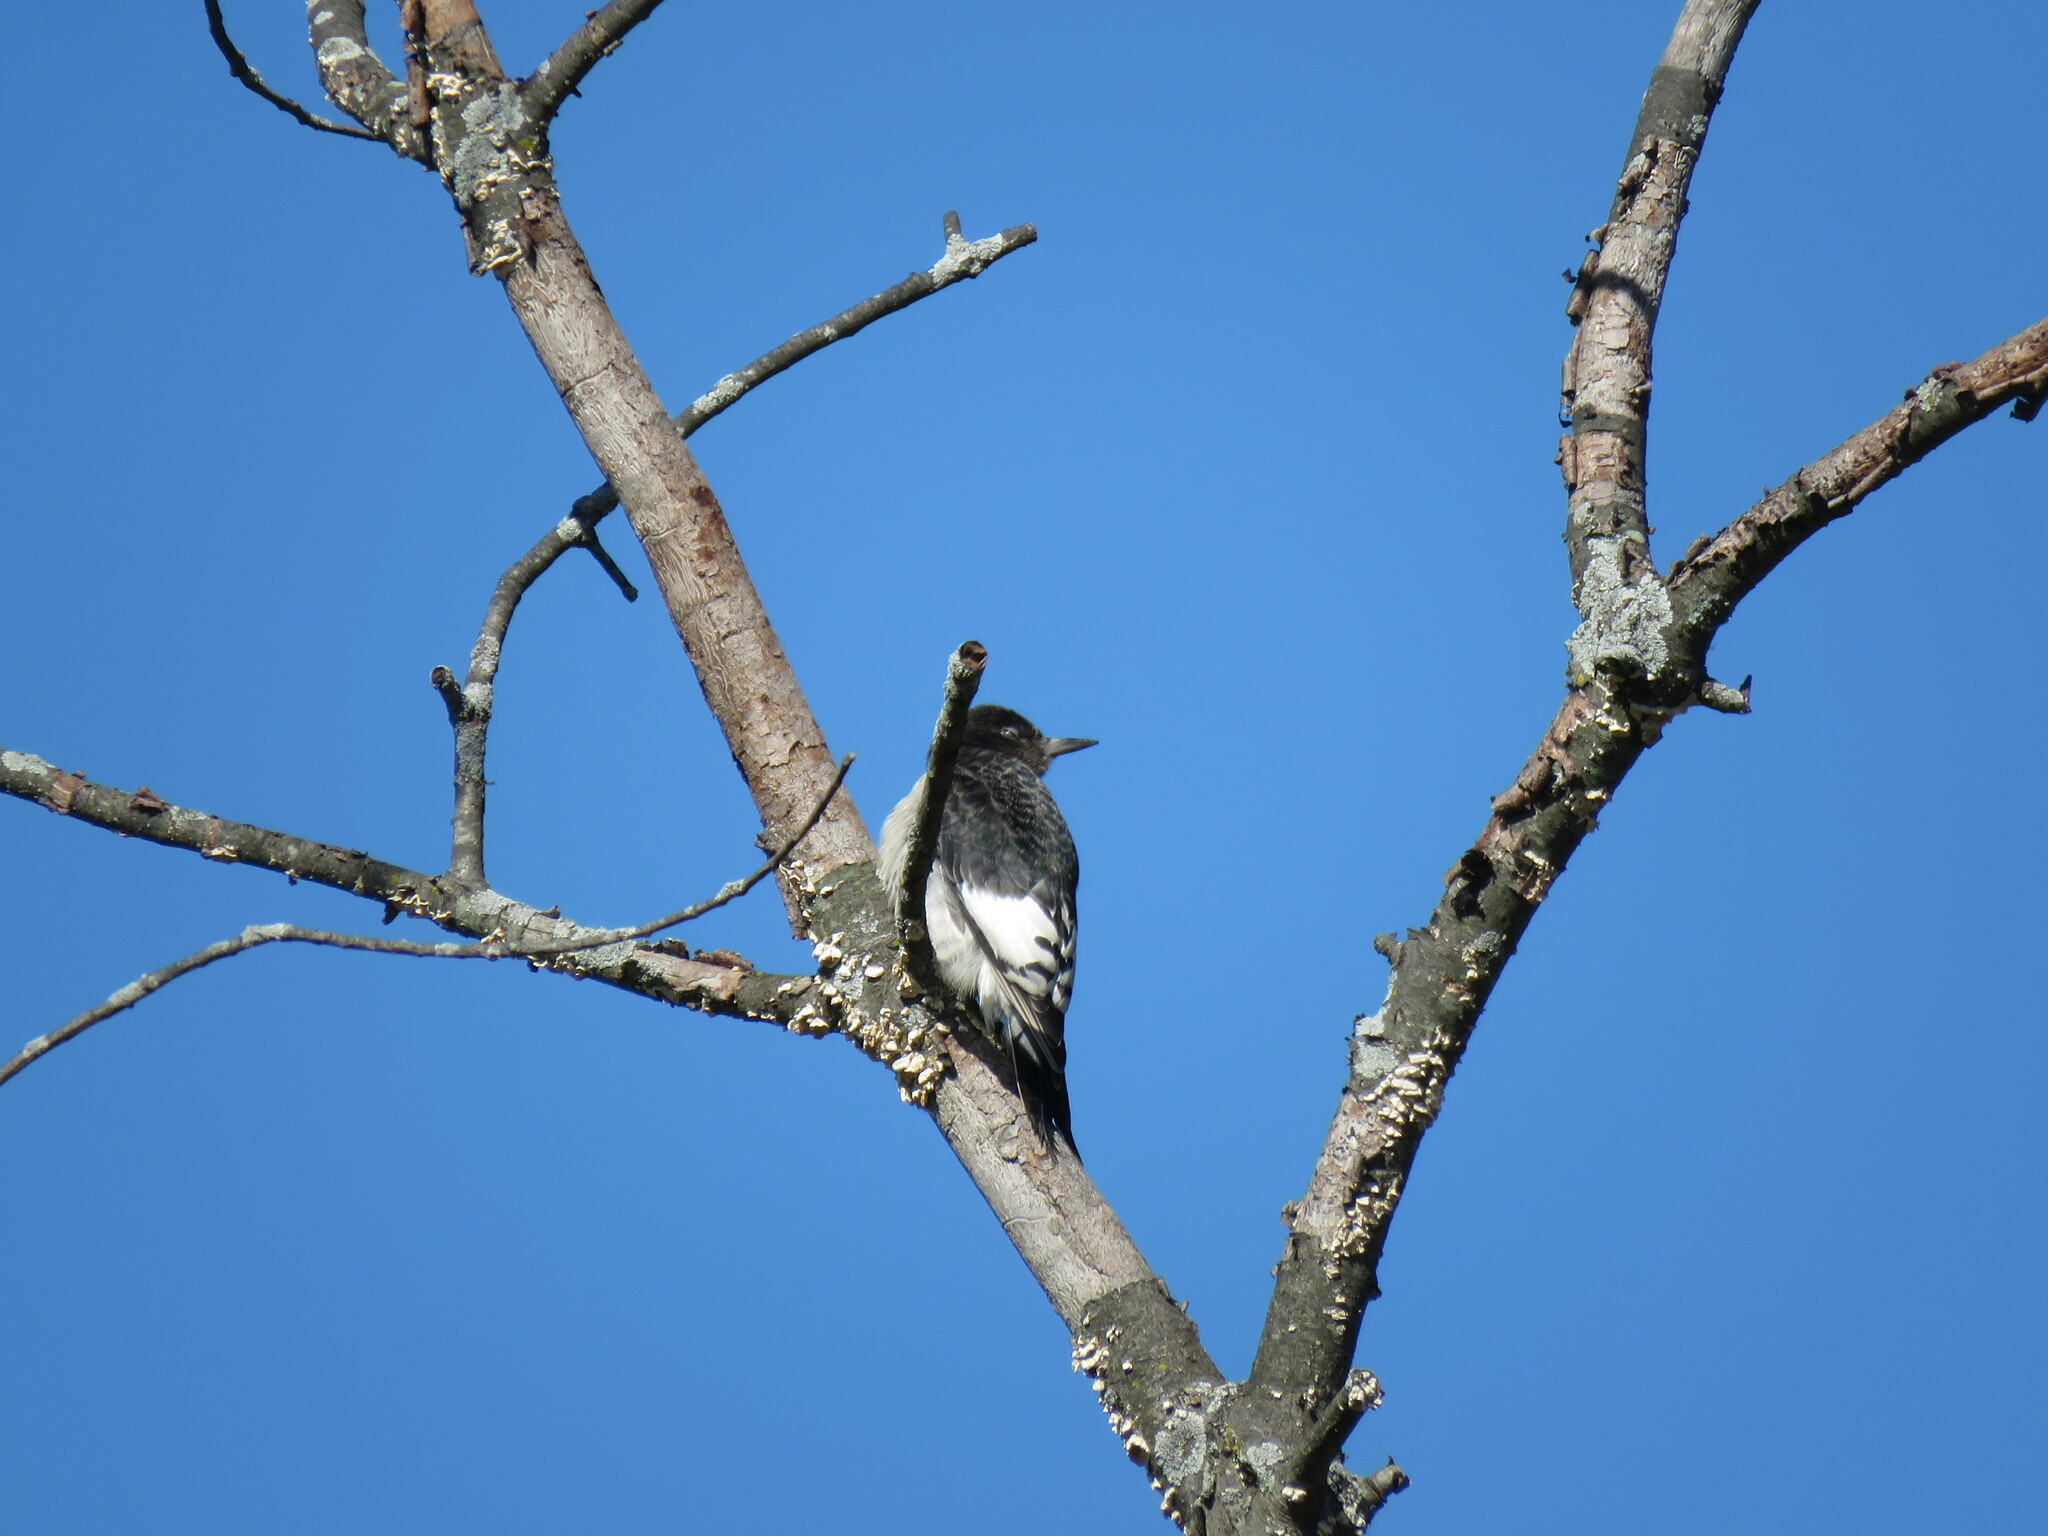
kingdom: Animalia
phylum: Chordata
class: Aves
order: Piciformes
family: Picidae
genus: Melanerpes
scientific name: Melanerpes erythrocephalus
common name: Red-headed woodpecker
